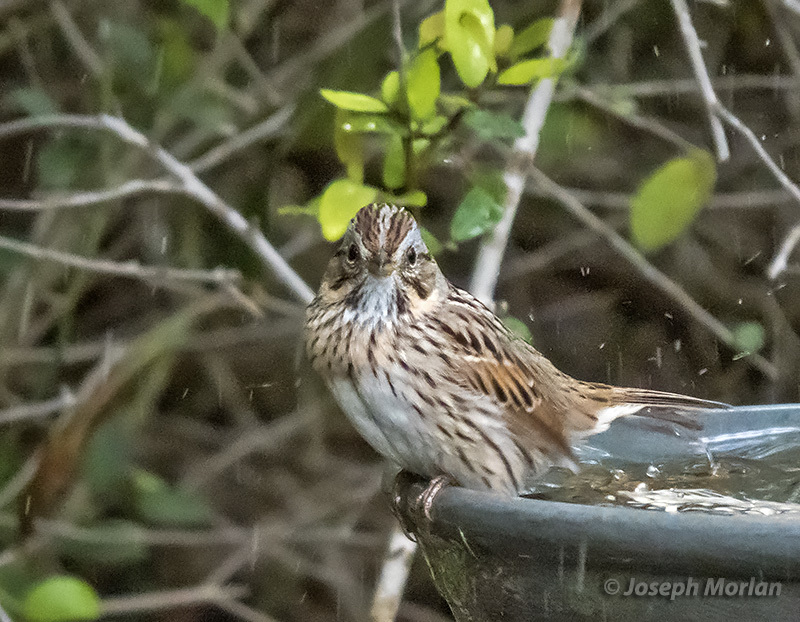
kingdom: Animalia
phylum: Chordata
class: Aves
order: Passeriformes
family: Passerellidae
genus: Melospiza
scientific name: Melospiza lincolnii
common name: Lincoln's sparrow
